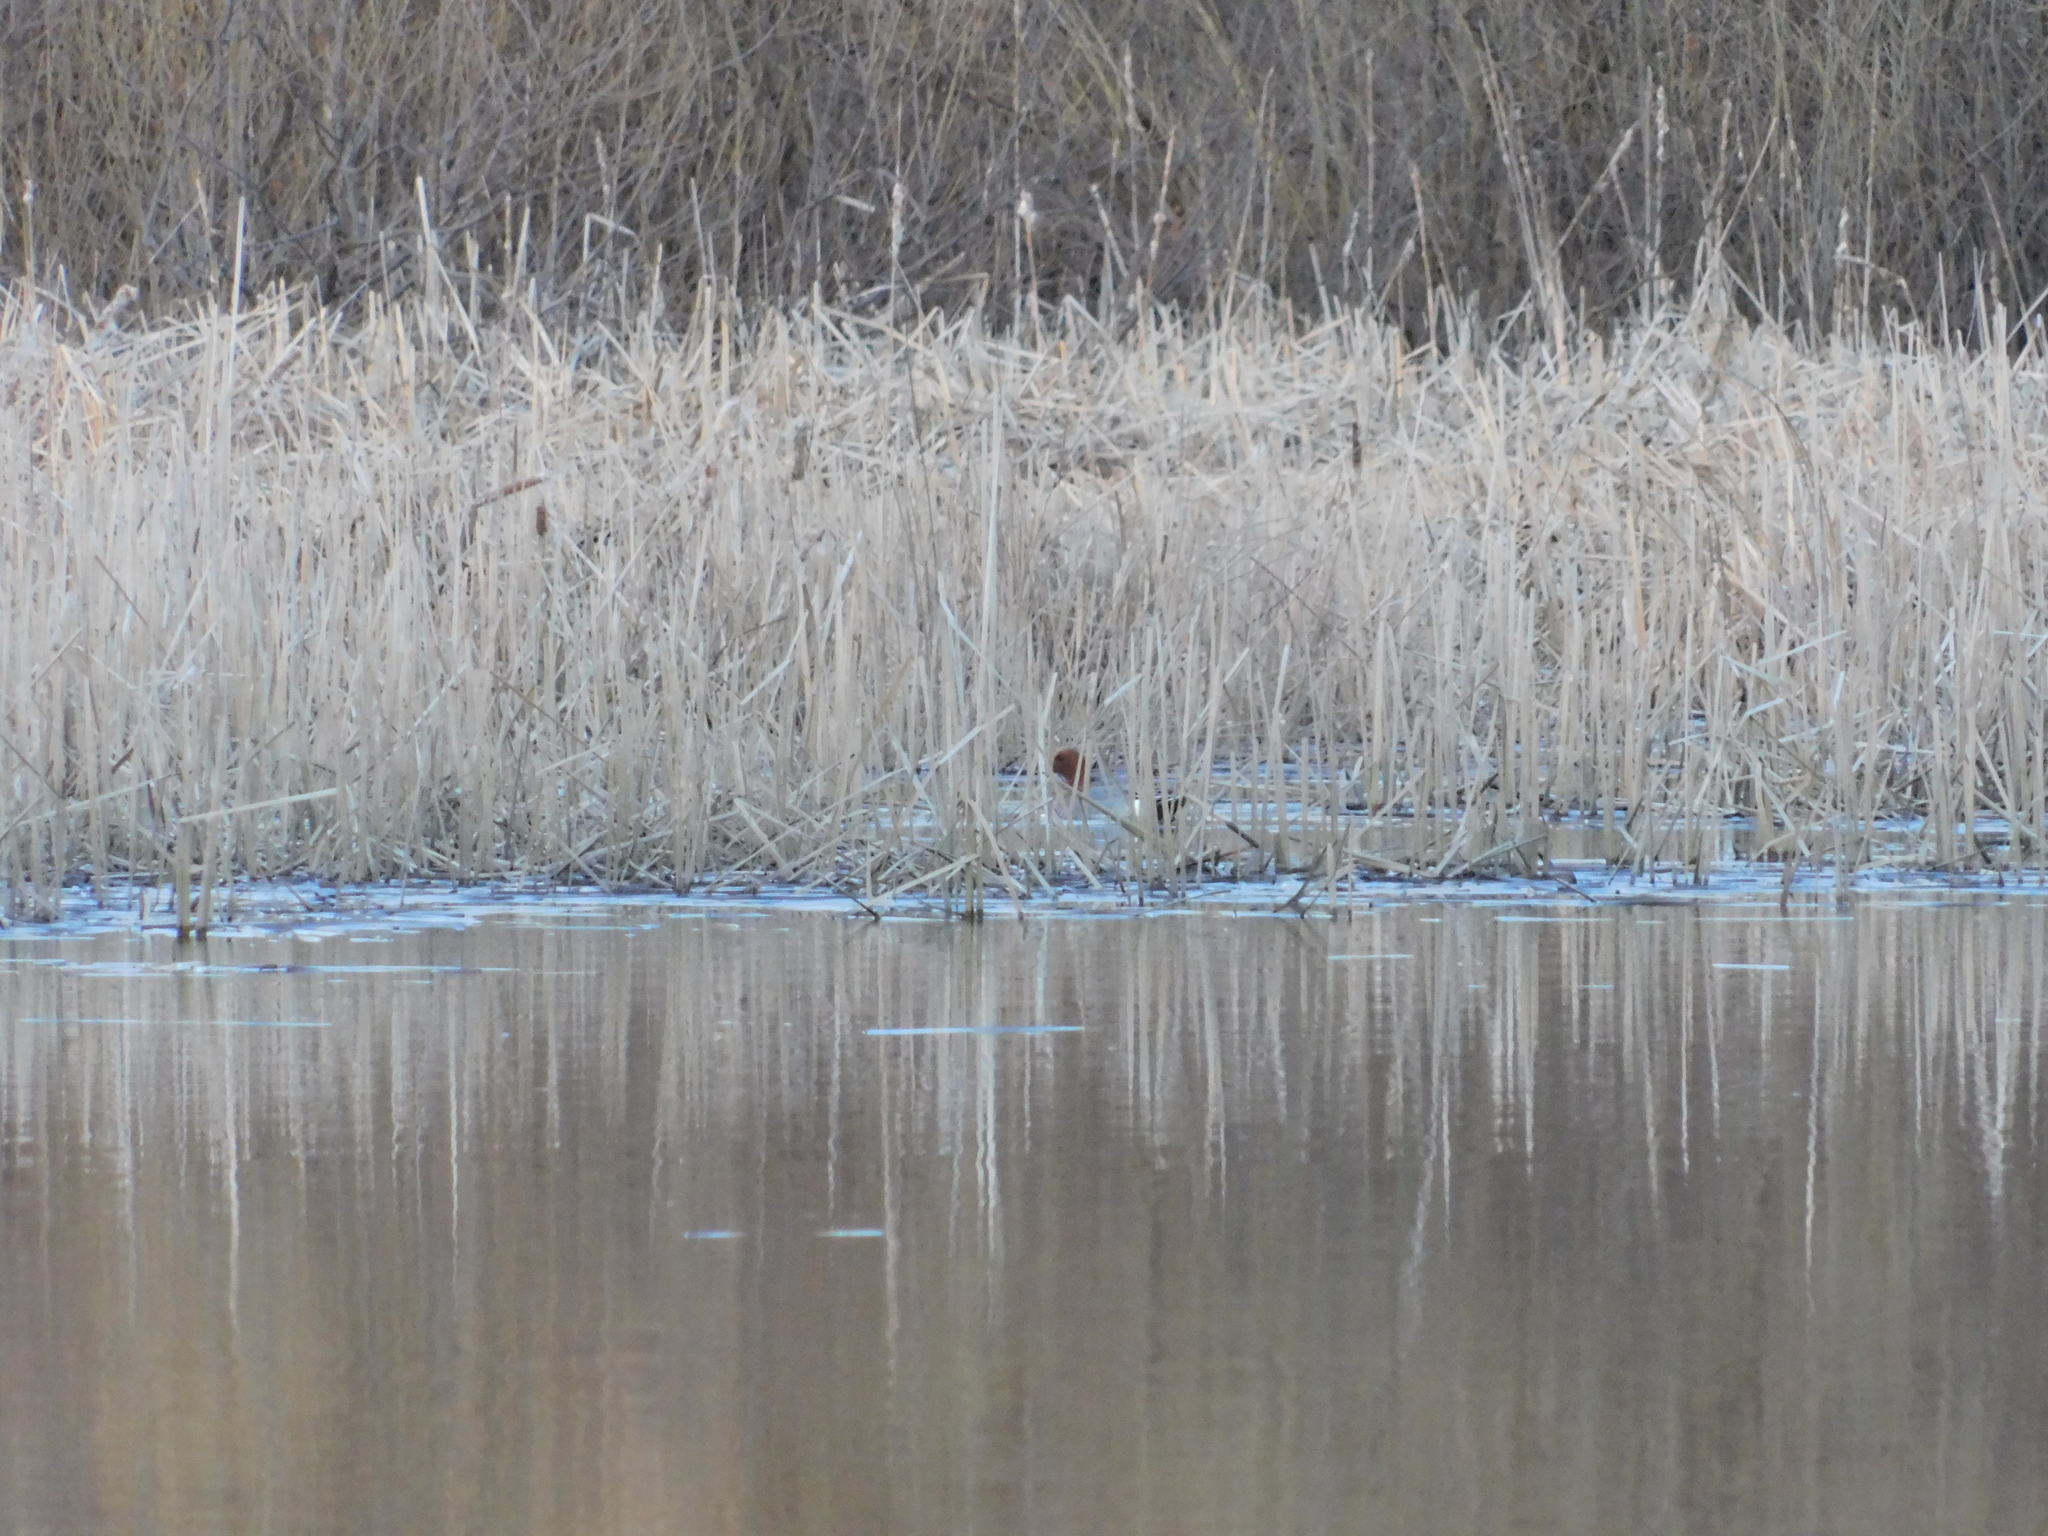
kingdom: Animalia
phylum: Chordata
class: Aves
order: Anseriformes
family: Anatidae
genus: Mareca
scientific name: Mareca penelope
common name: Eurasian wigeon
